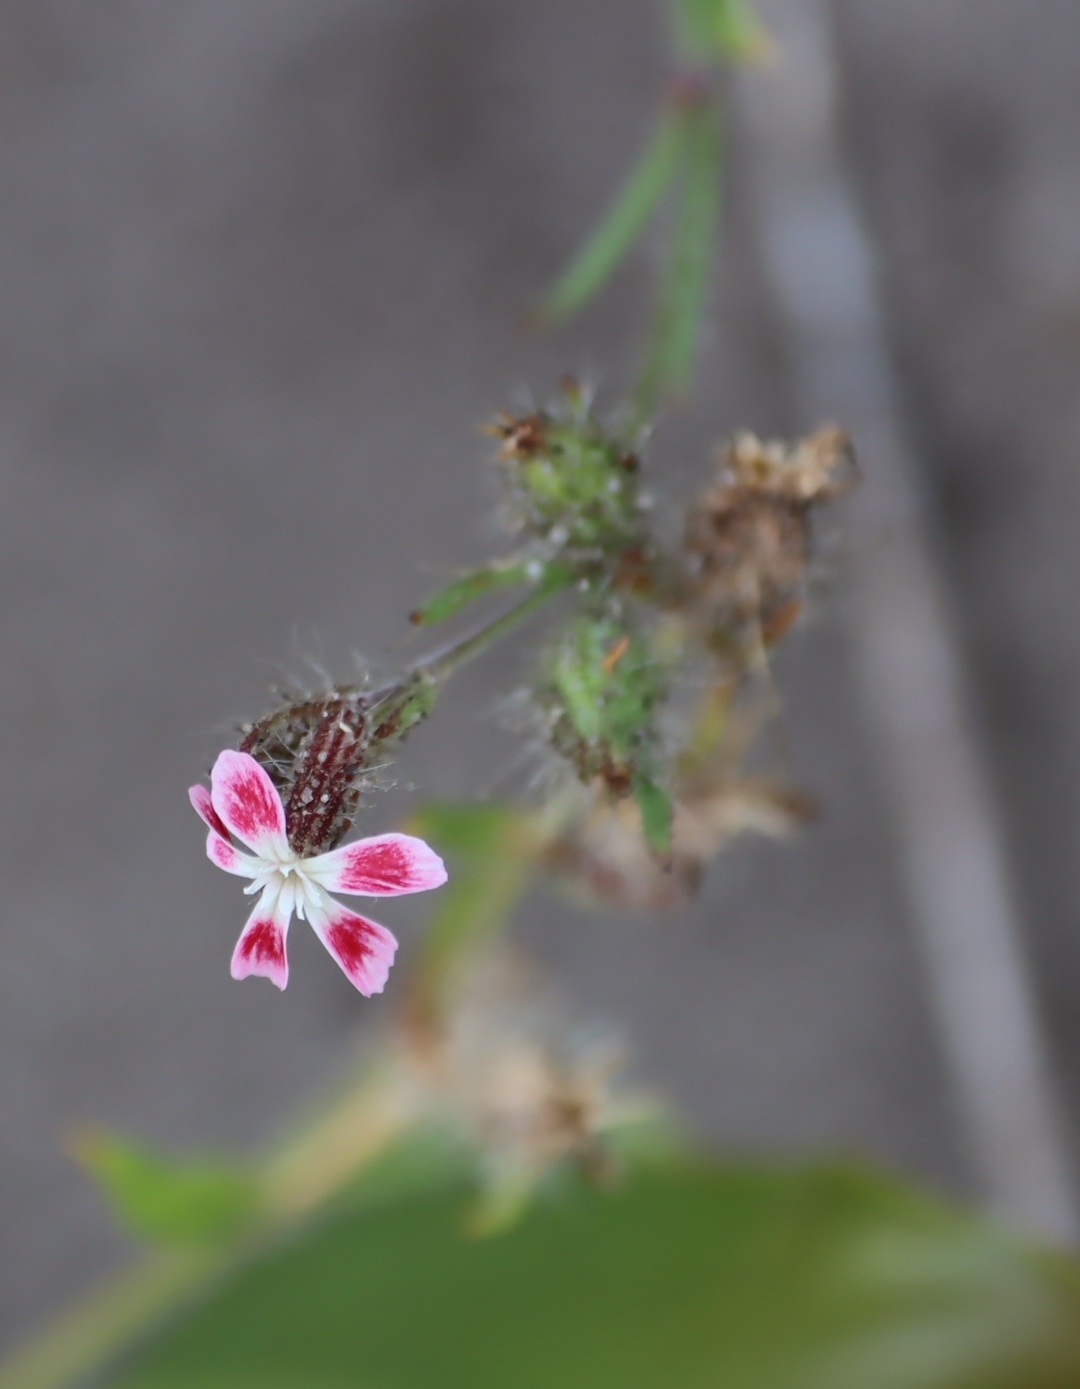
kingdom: Plantae
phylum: Tracheophyta
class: Magnoliopsida
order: Caryophyllales
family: Caryophyllaceae
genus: Silene
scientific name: Silene gallica
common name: Small-flowered catchfly
